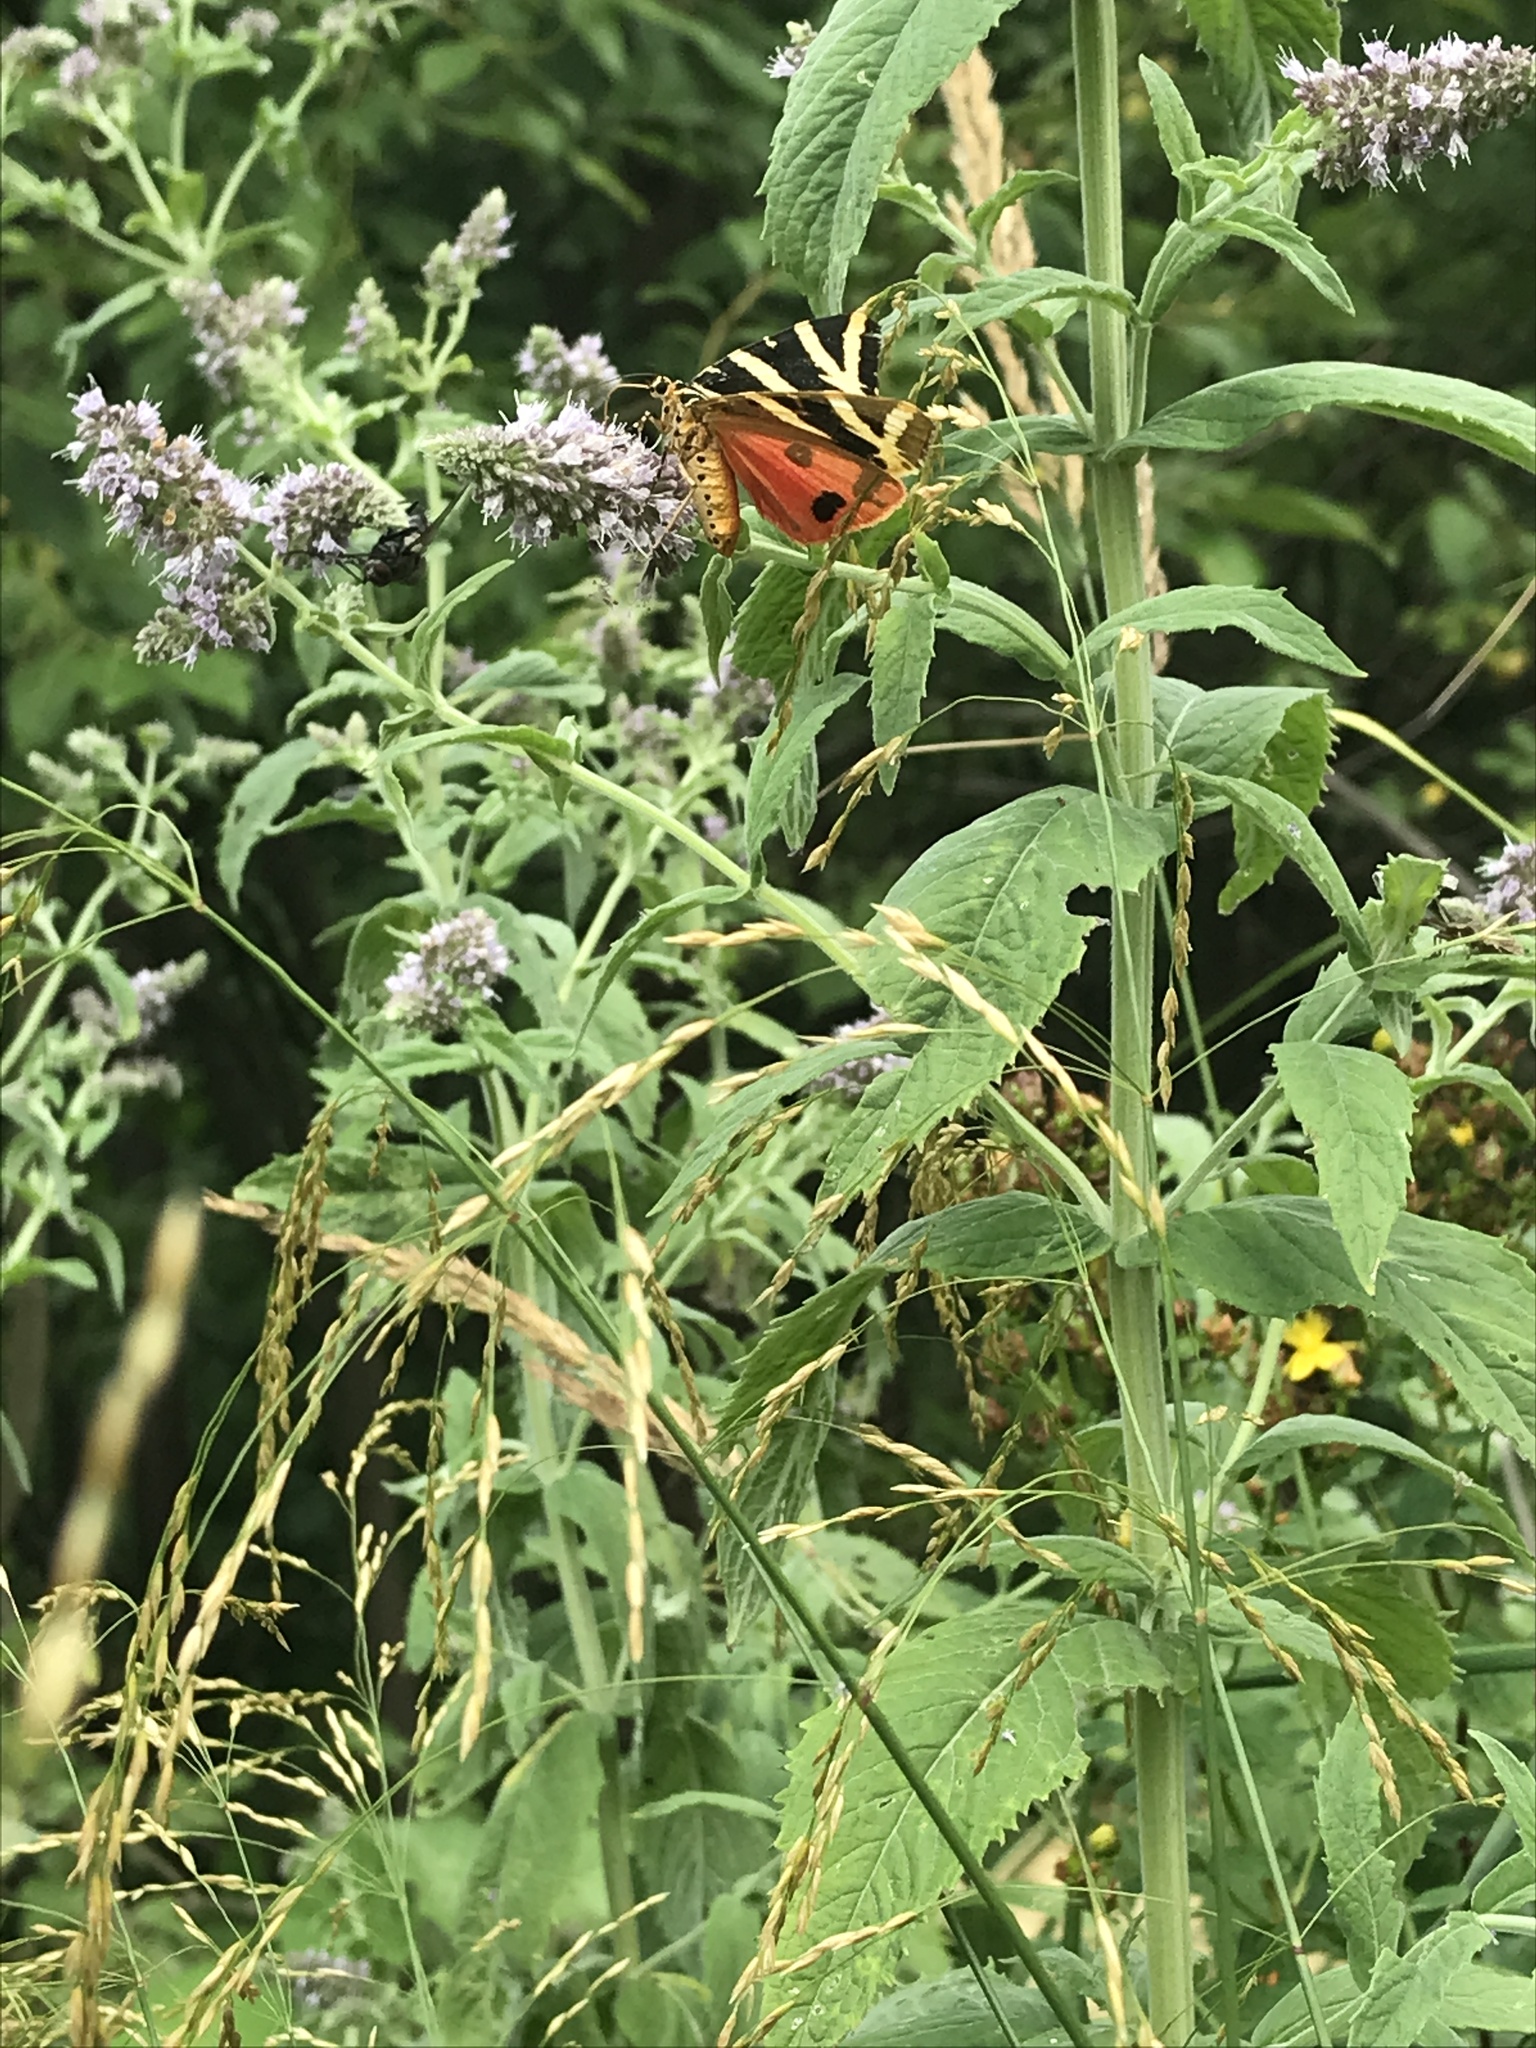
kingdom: Animalia
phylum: Arthropoda
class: Insecta
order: Lepidoptera
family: Erebidae
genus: Euplagia
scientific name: Euplagia quadripunctaria
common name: Jersey tiger
